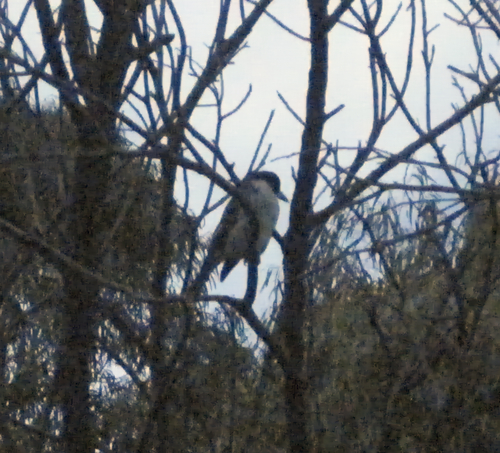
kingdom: Animalia
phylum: Chordata
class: Aves
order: Passeriformes
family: Cracticidae
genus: Cracticus
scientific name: Cracticus torquatus
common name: Grey butcherbird
